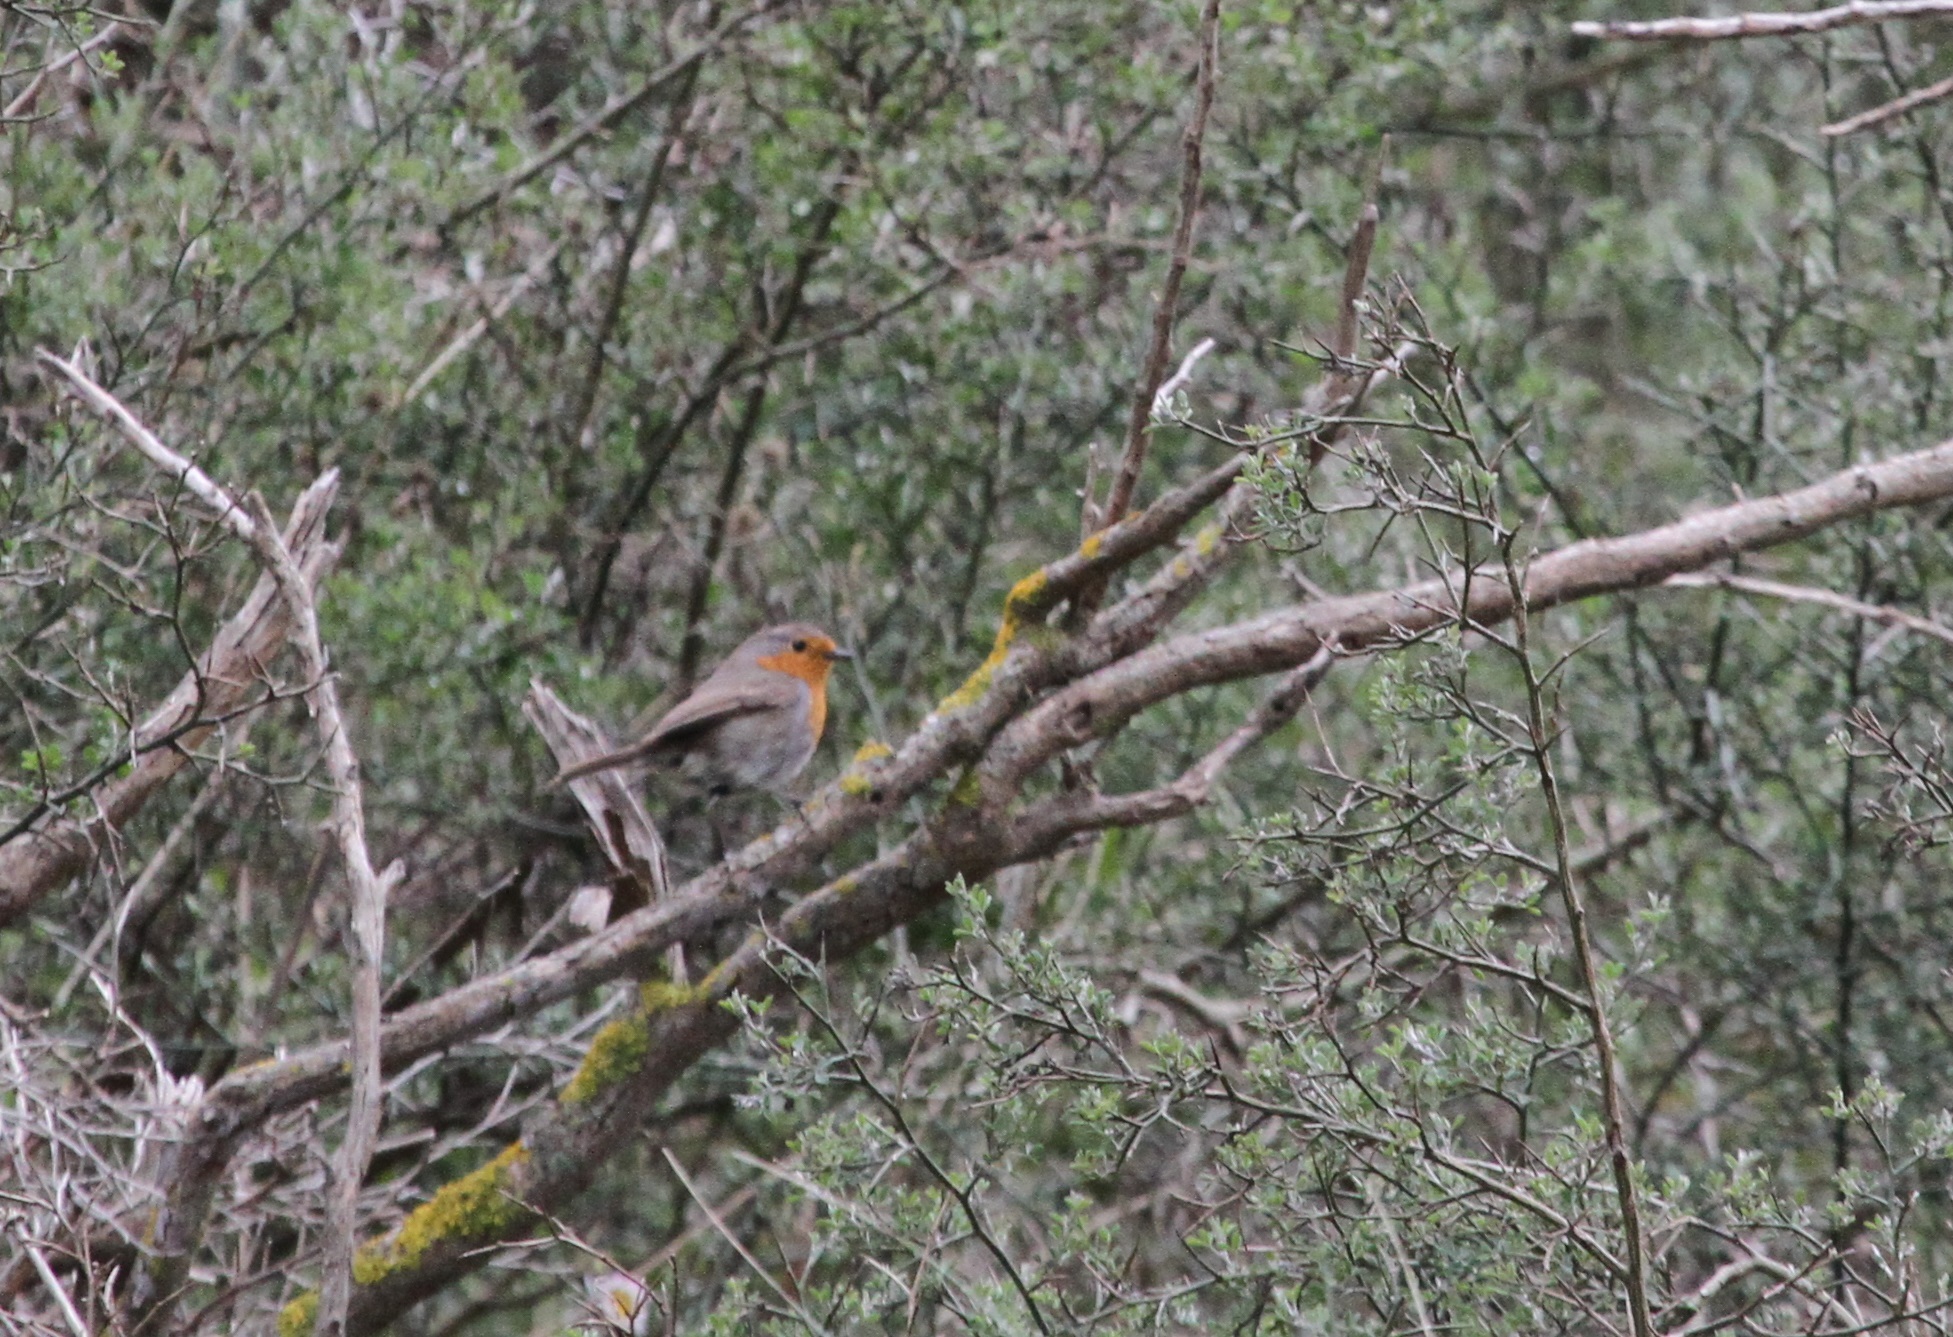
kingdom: Animalia
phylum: Chordata
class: Aves
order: Passeriformes
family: Muscicapidae
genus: Erithacus
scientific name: Erithacus rubecula
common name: European robin
